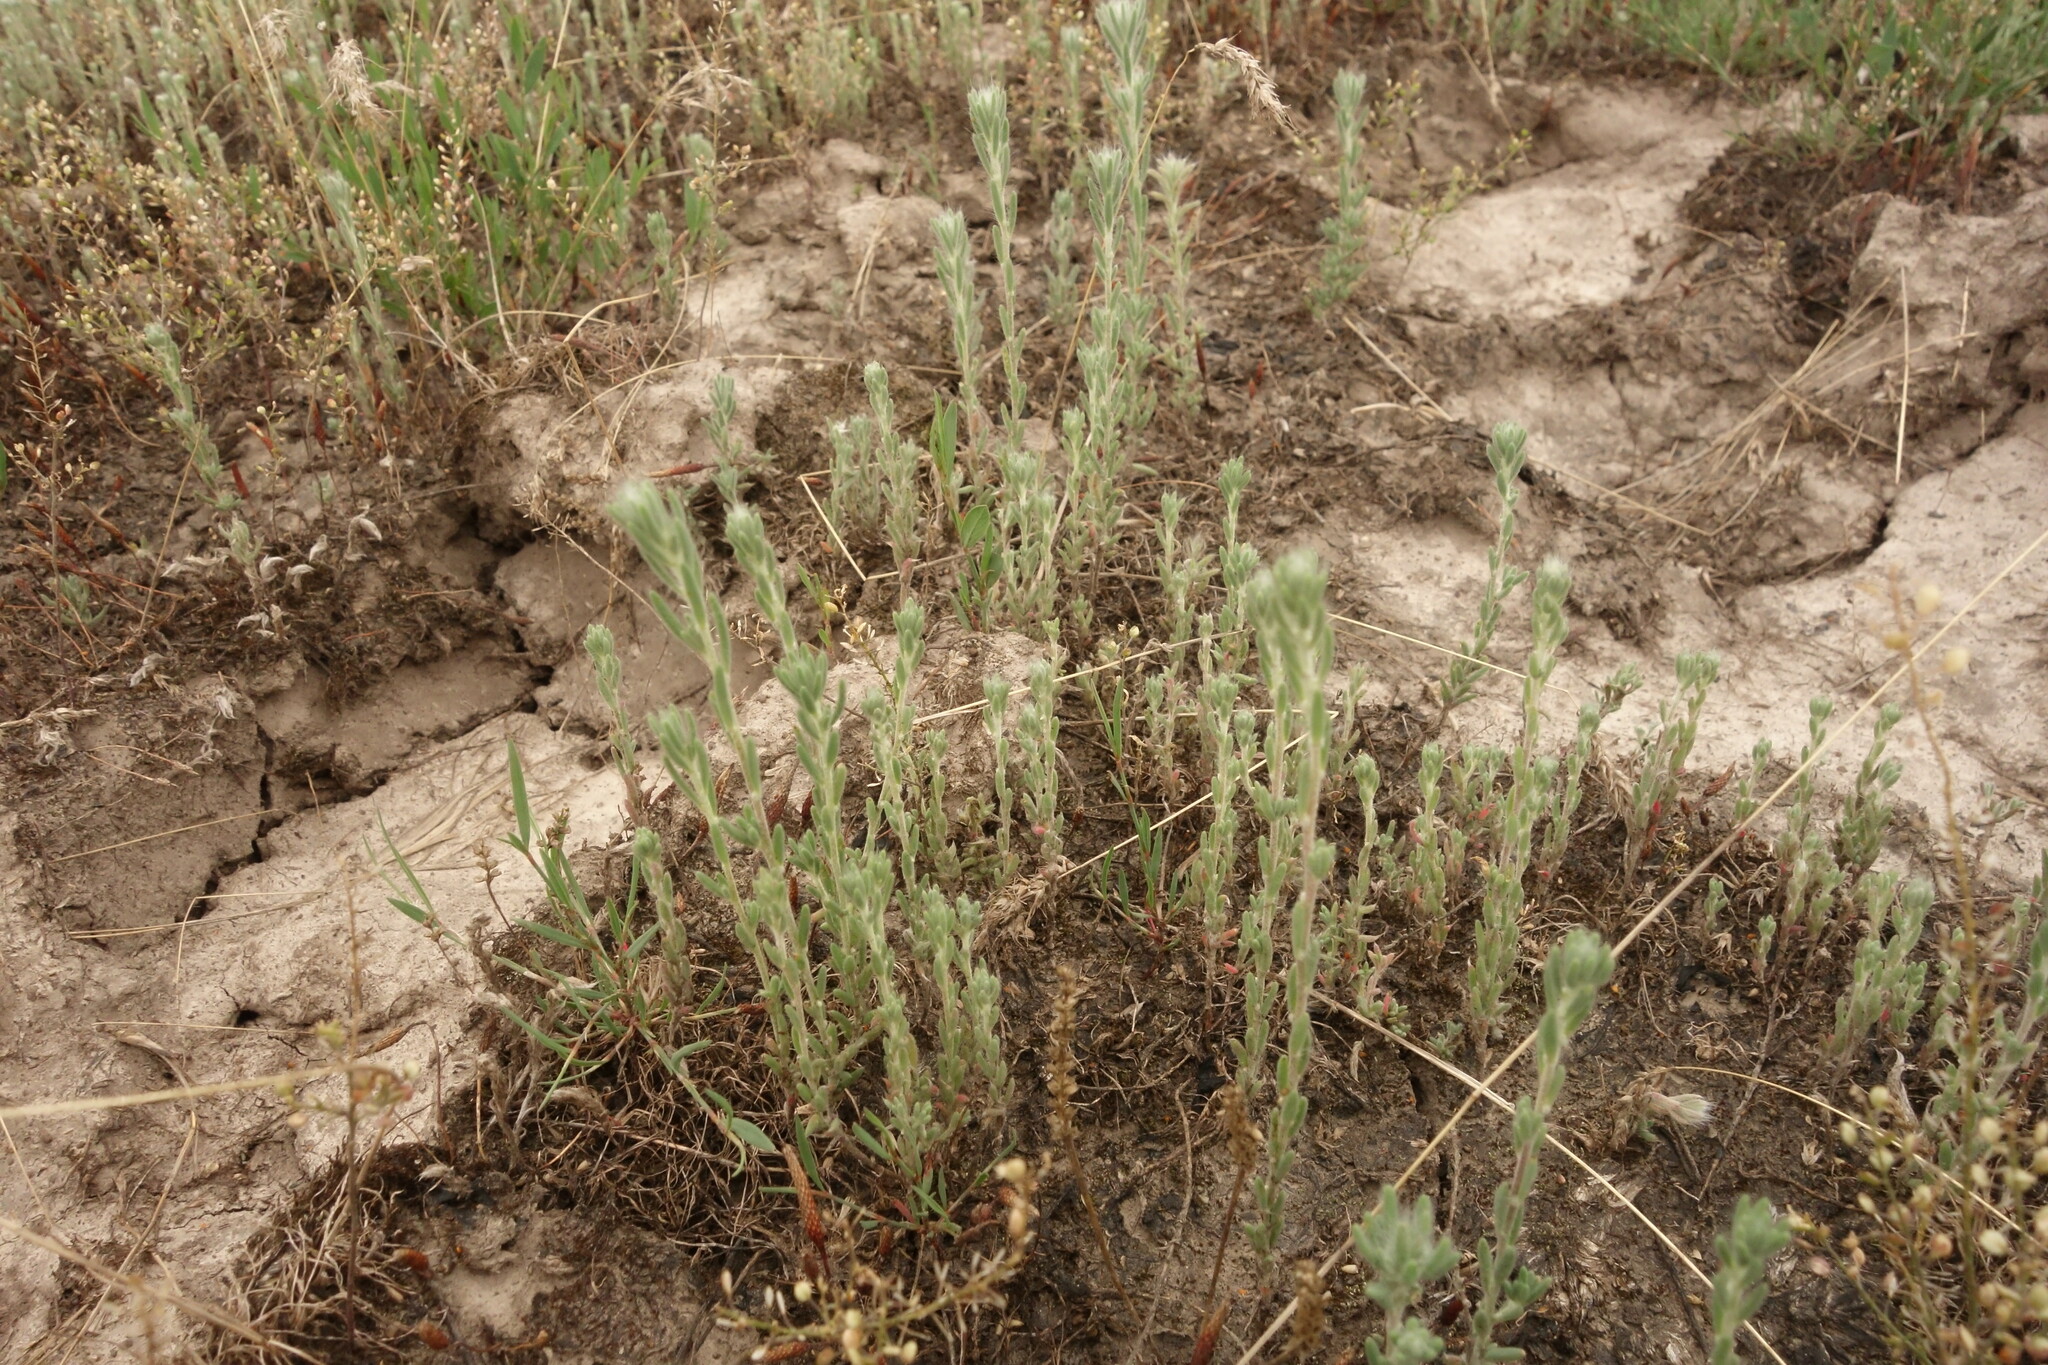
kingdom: Plantae
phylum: Tracheophyta
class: Magnoliopsida
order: Caryophyllales
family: Amaranthaceae
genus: Sedobassia
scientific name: Sedobassia sedoides
